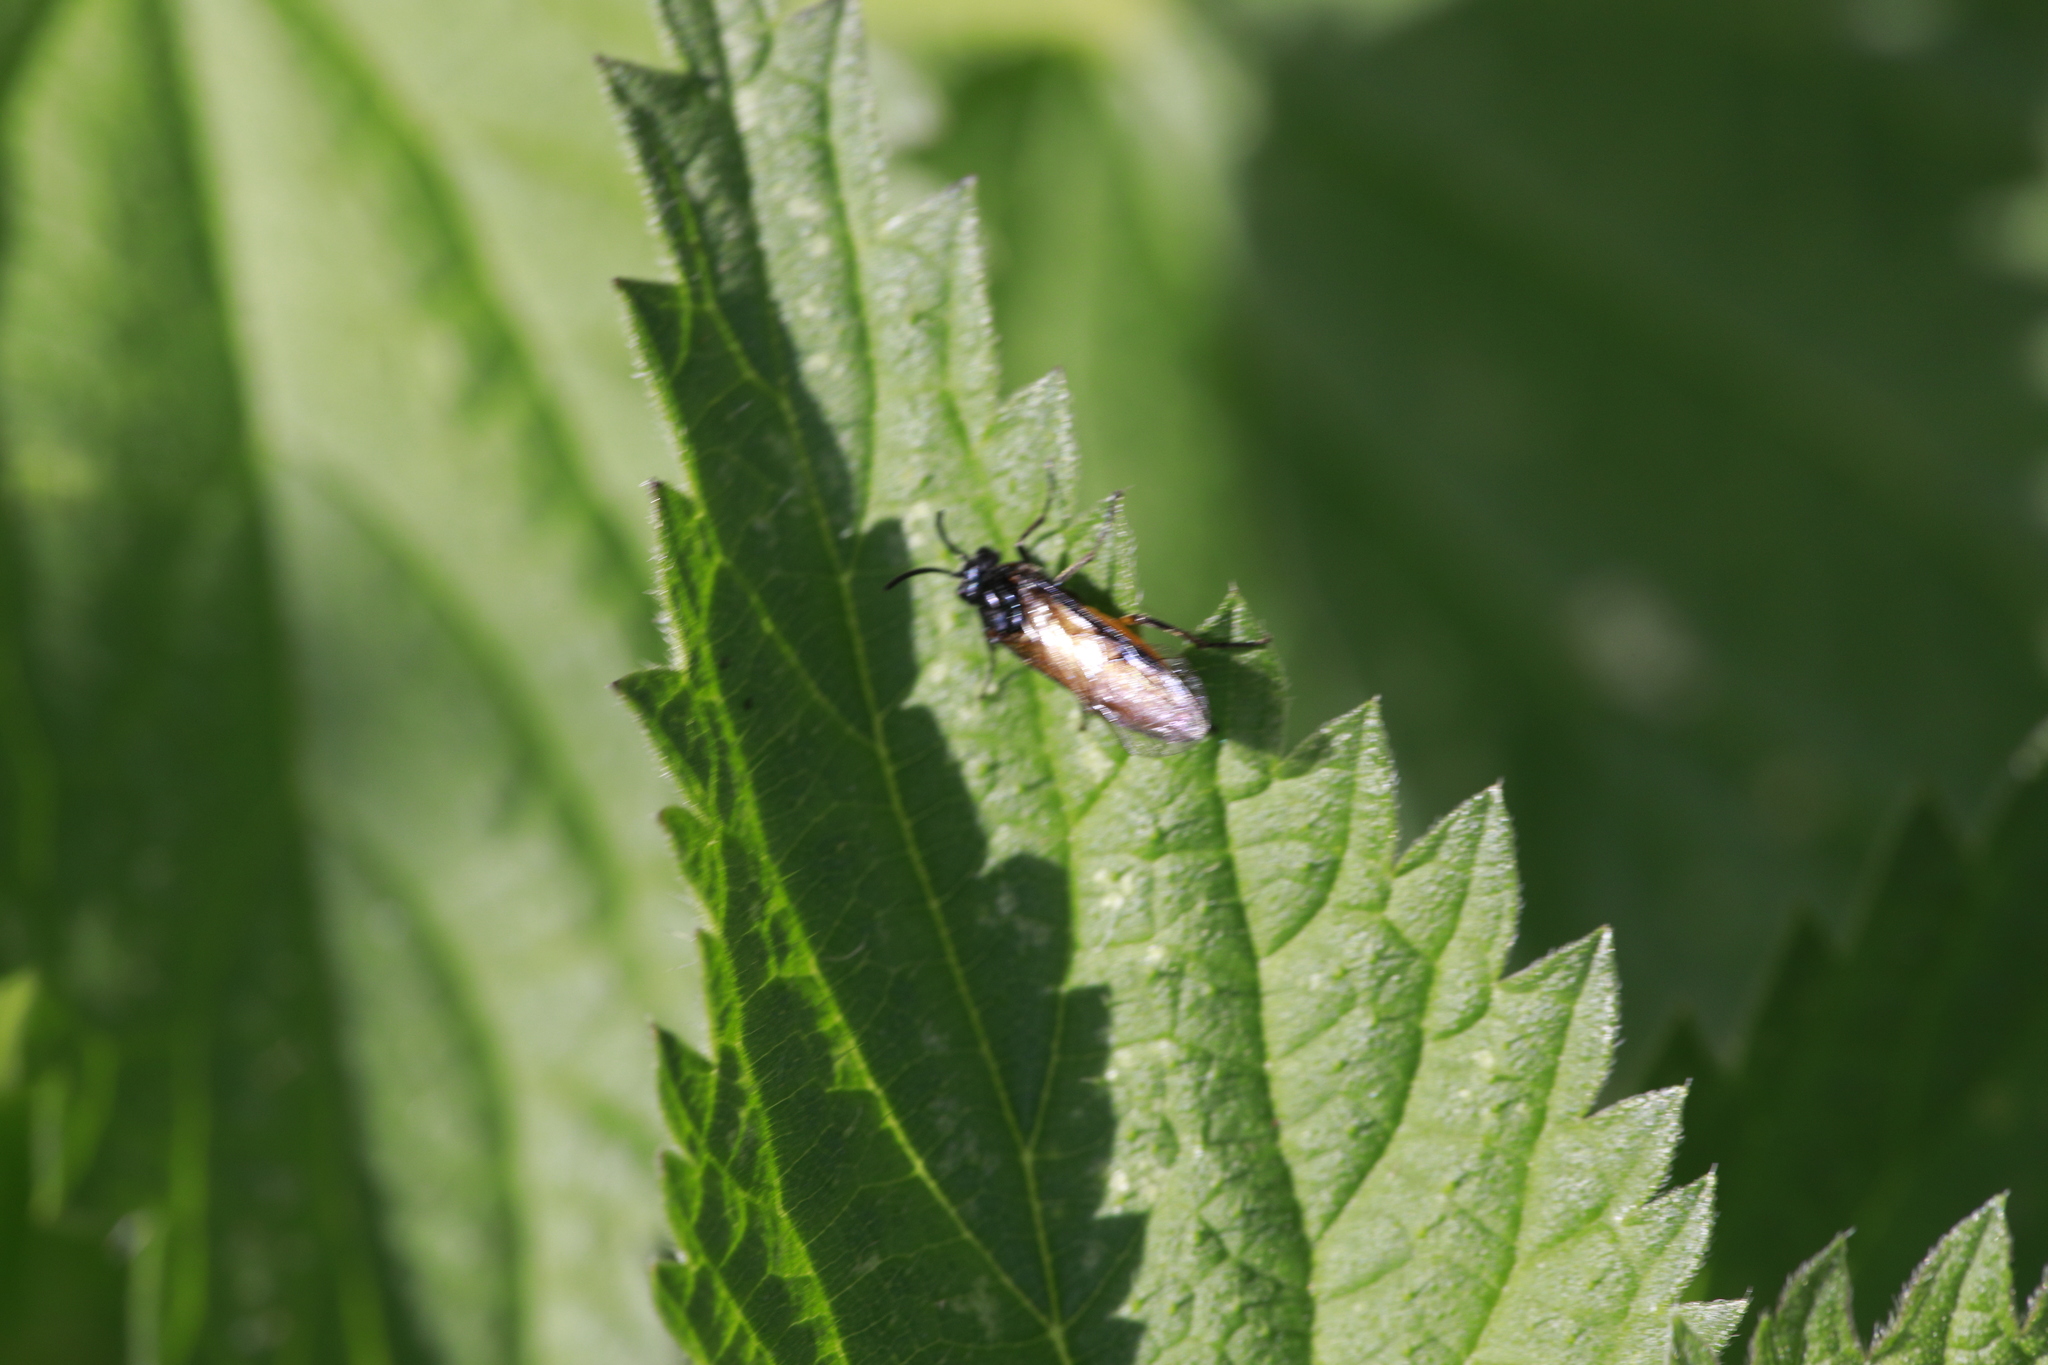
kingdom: Animalia
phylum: Arthropoda
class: Insecta
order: Hymenoptera
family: Argidae
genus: Arge
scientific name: Arge pagana
